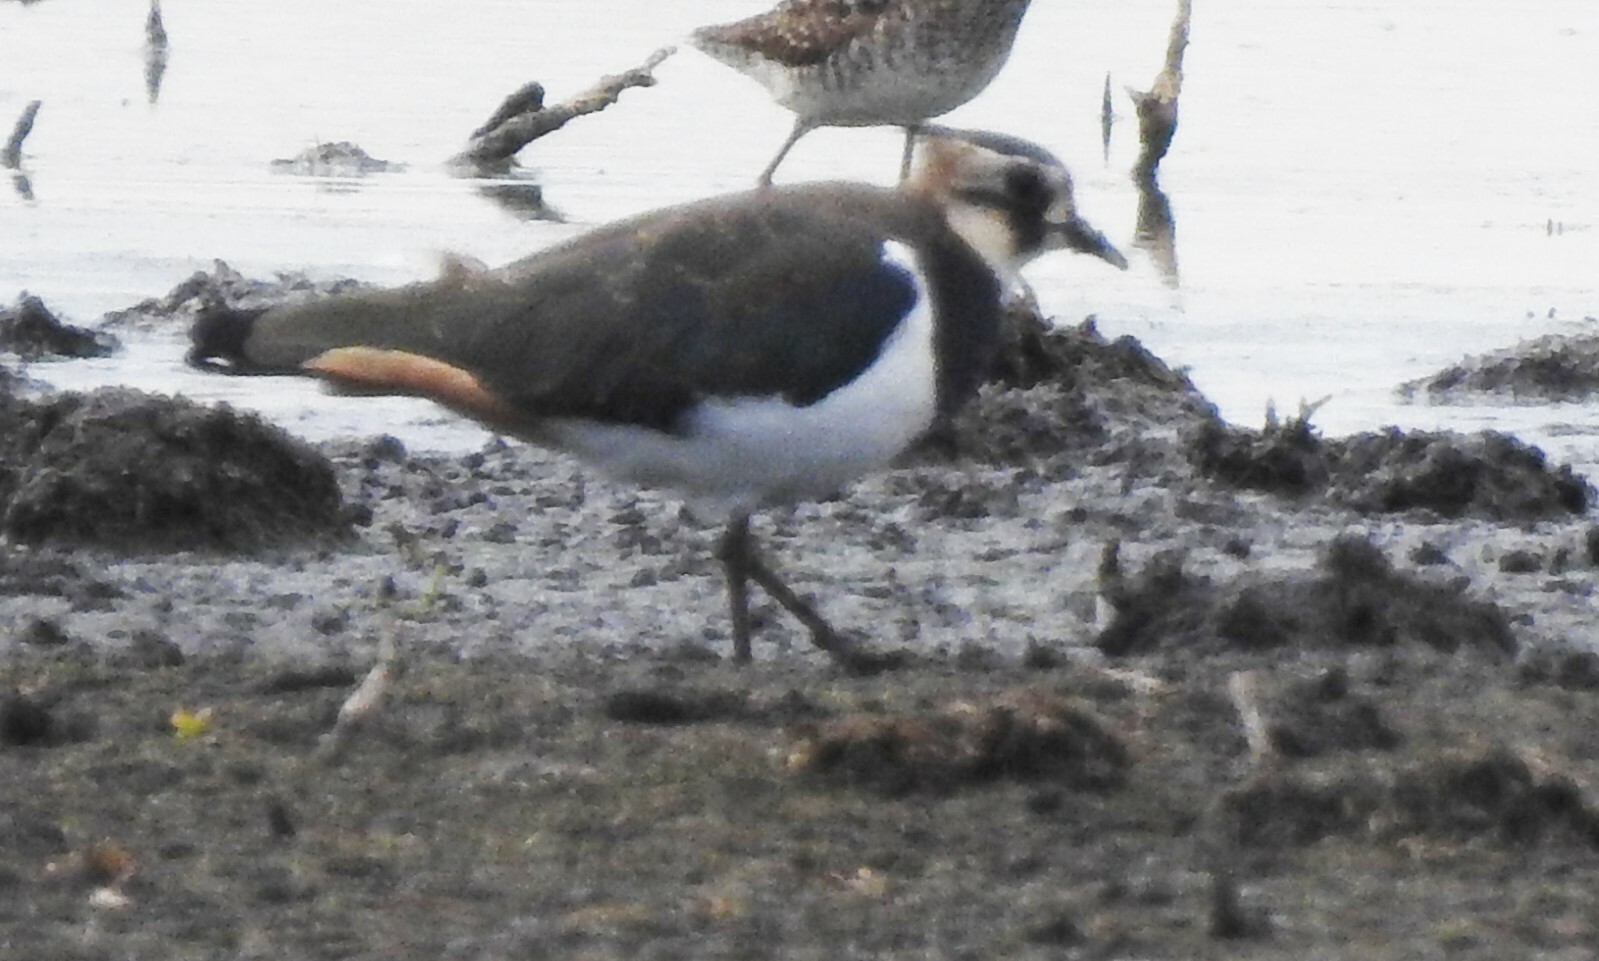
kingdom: Animalia
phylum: Chordata
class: Aves
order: Charadriiformes
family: Charadriidae
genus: Vanellus
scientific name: Vanellus vanellus
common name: Northern lapwing
